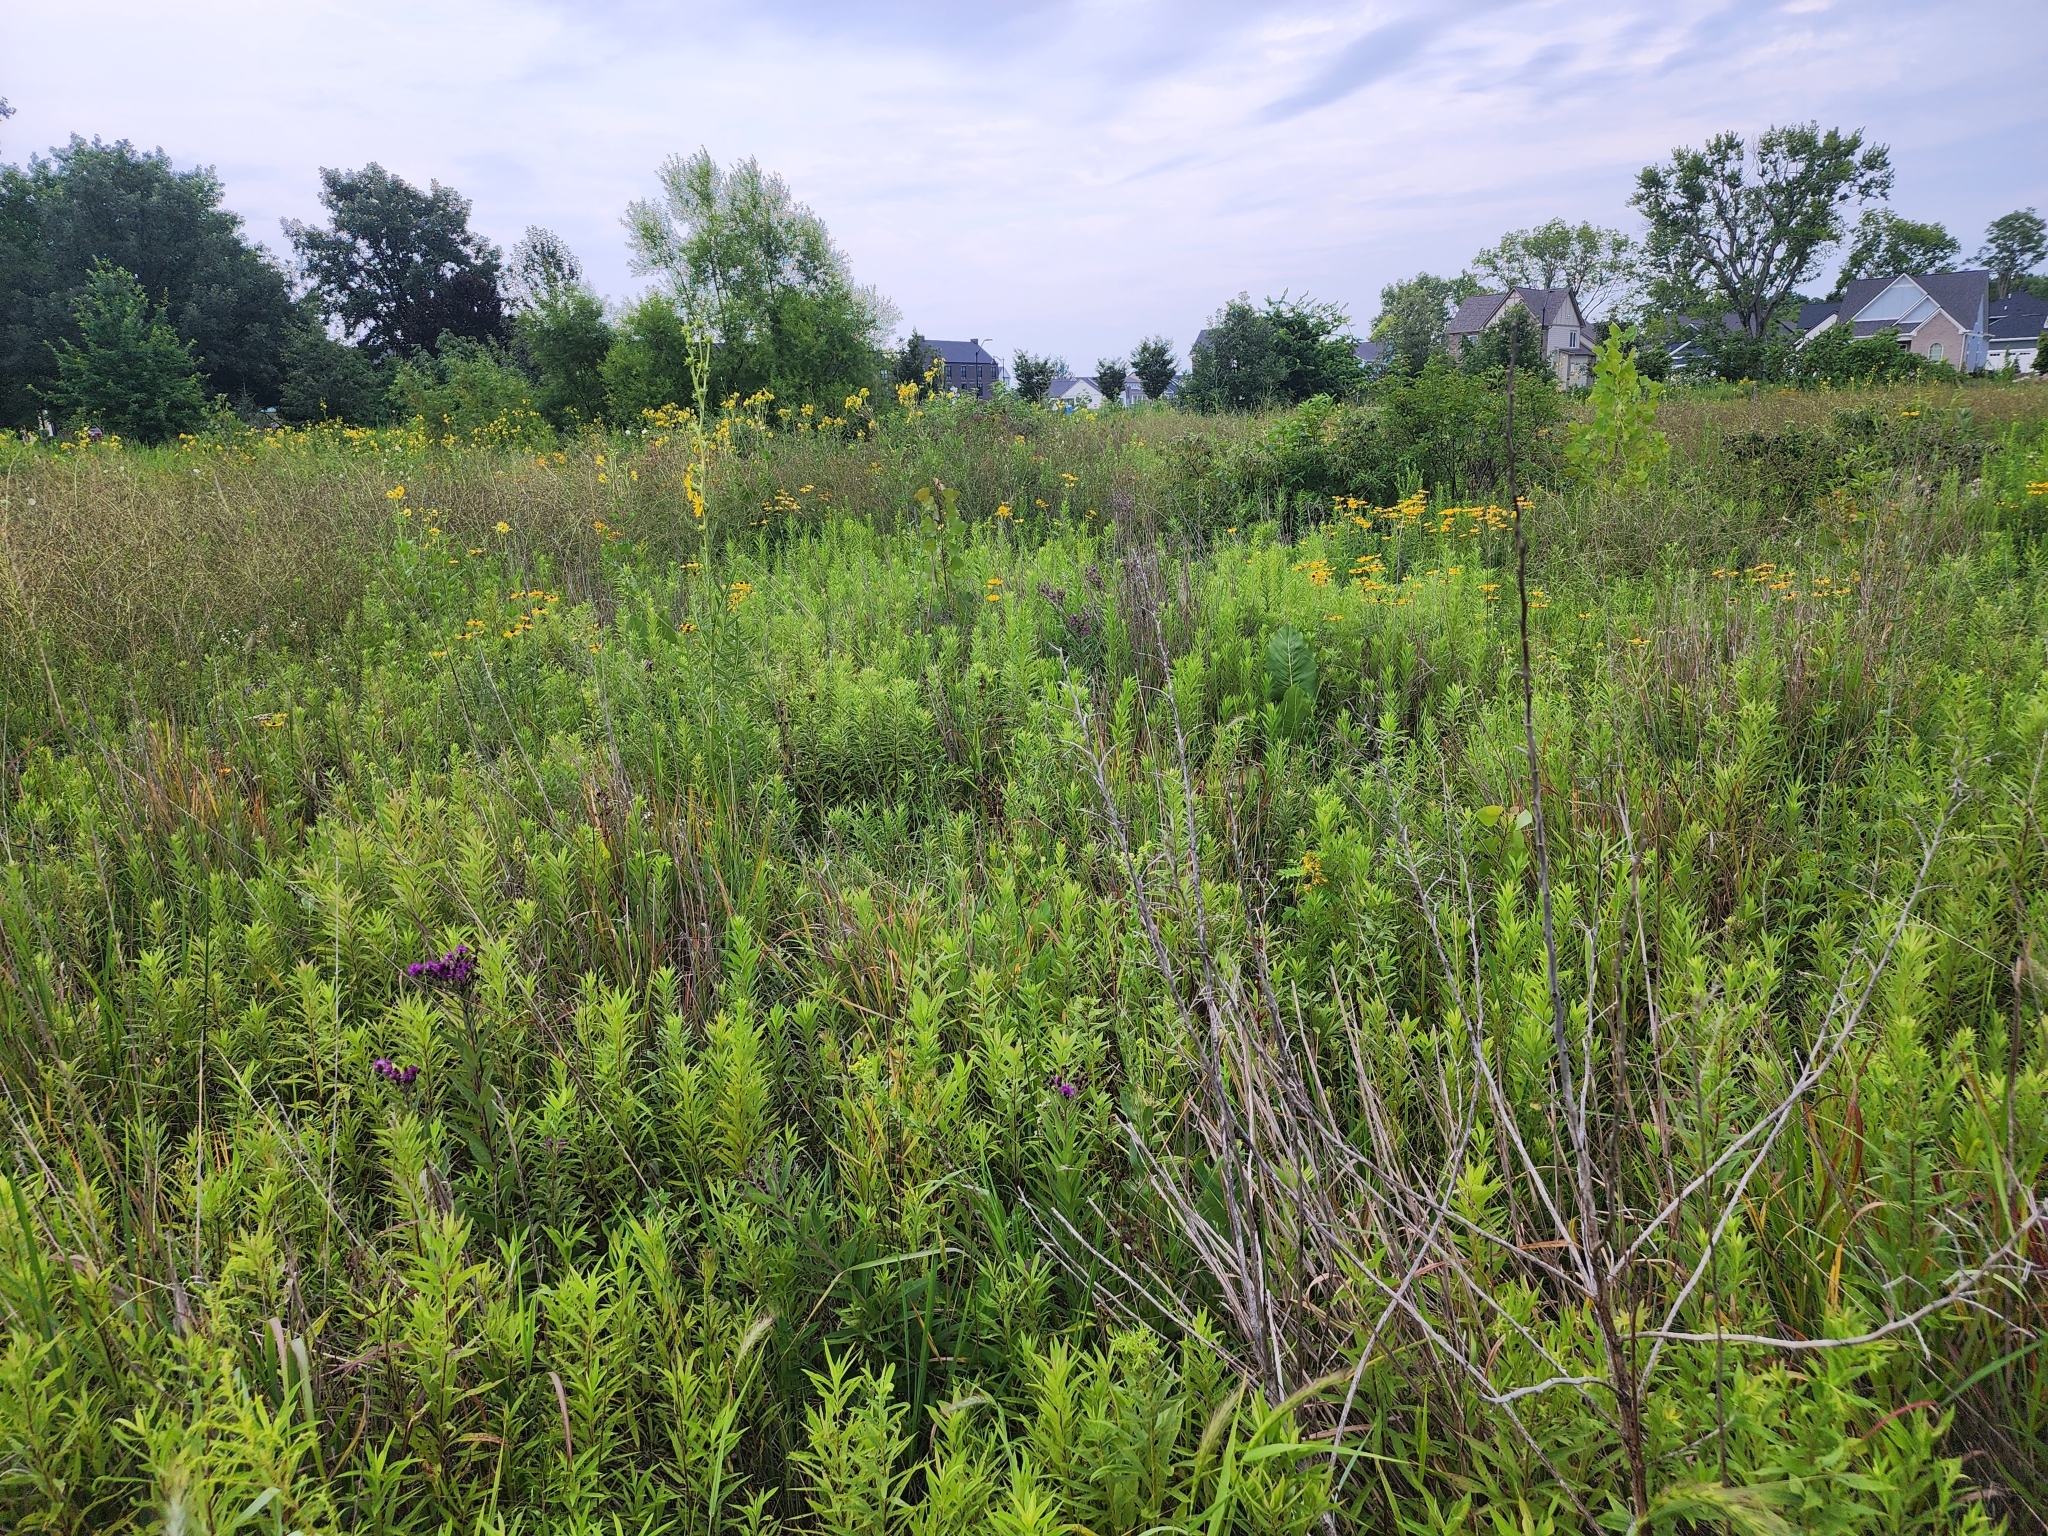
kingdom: Plantae
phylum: Tracheophyta
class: Magnoliopsida
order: Asterales
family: Asteraceae
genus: Silphium
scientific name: Silphium laciniatum
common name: Polarplant
